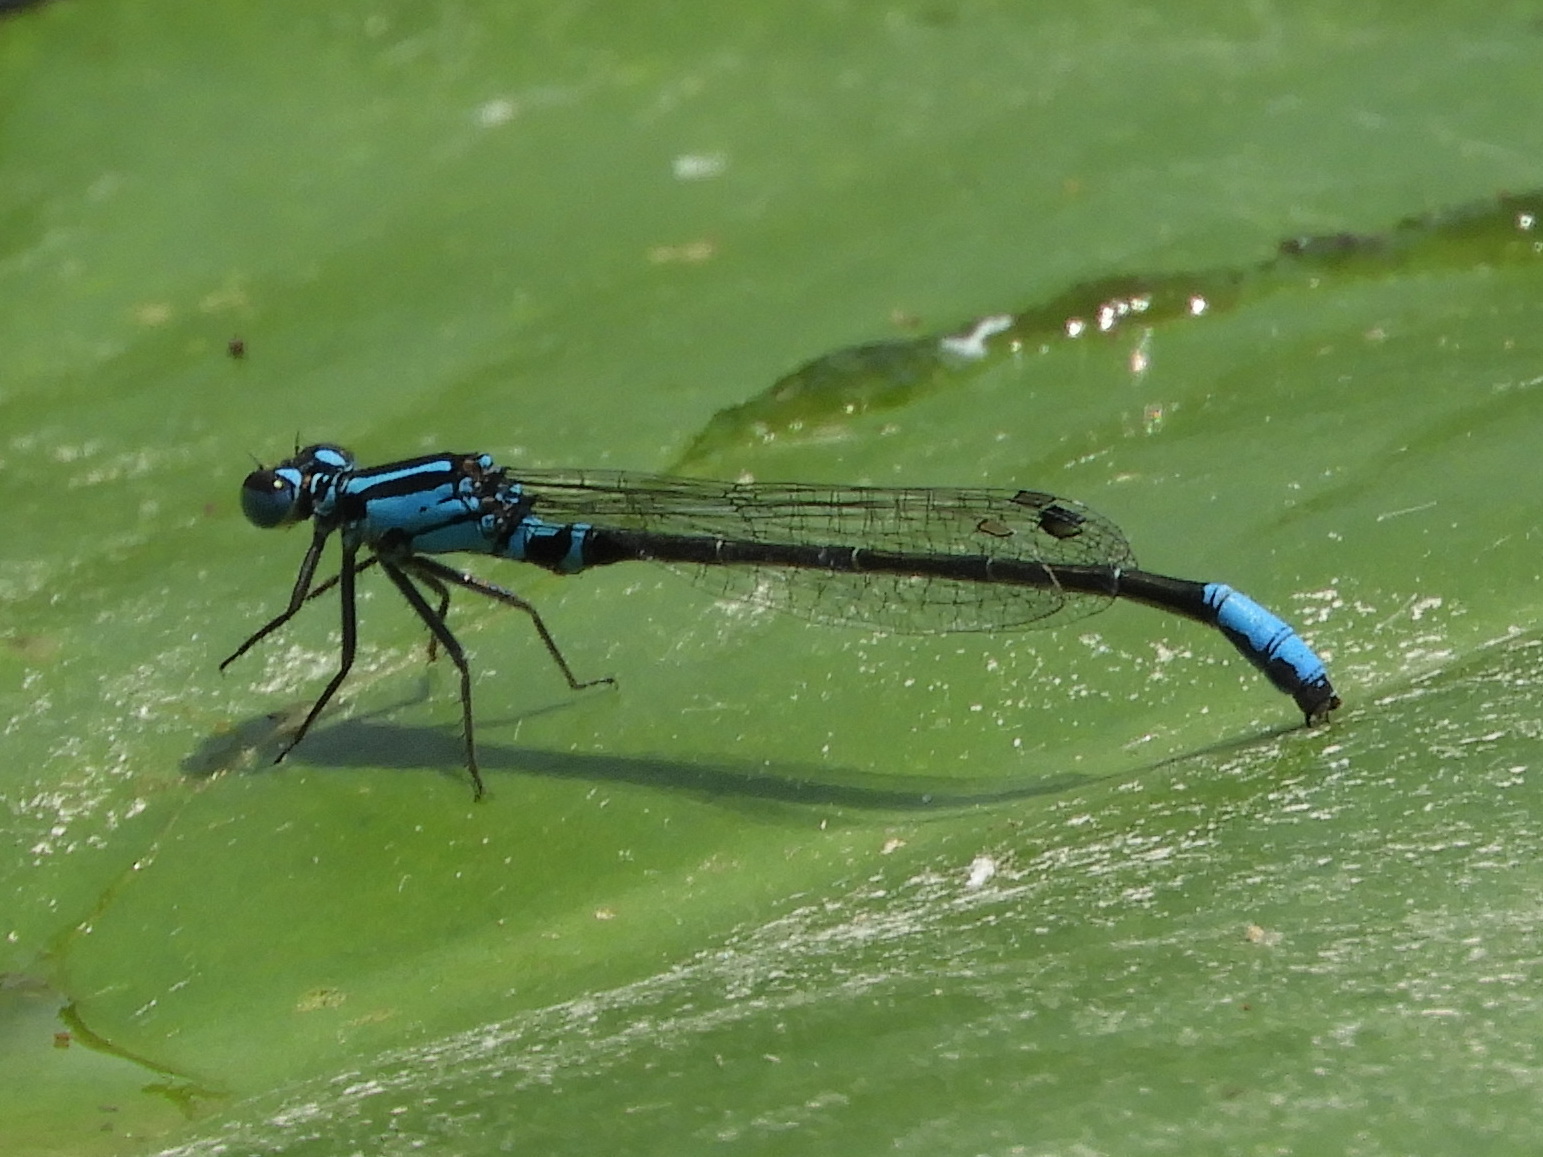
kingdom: Animalia
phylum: Arthropoda
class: Insecta
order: Odonata
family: Coenagrionidae
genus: Ischnura
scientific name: Ischnura kellicotti
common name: Lilypad forktail
